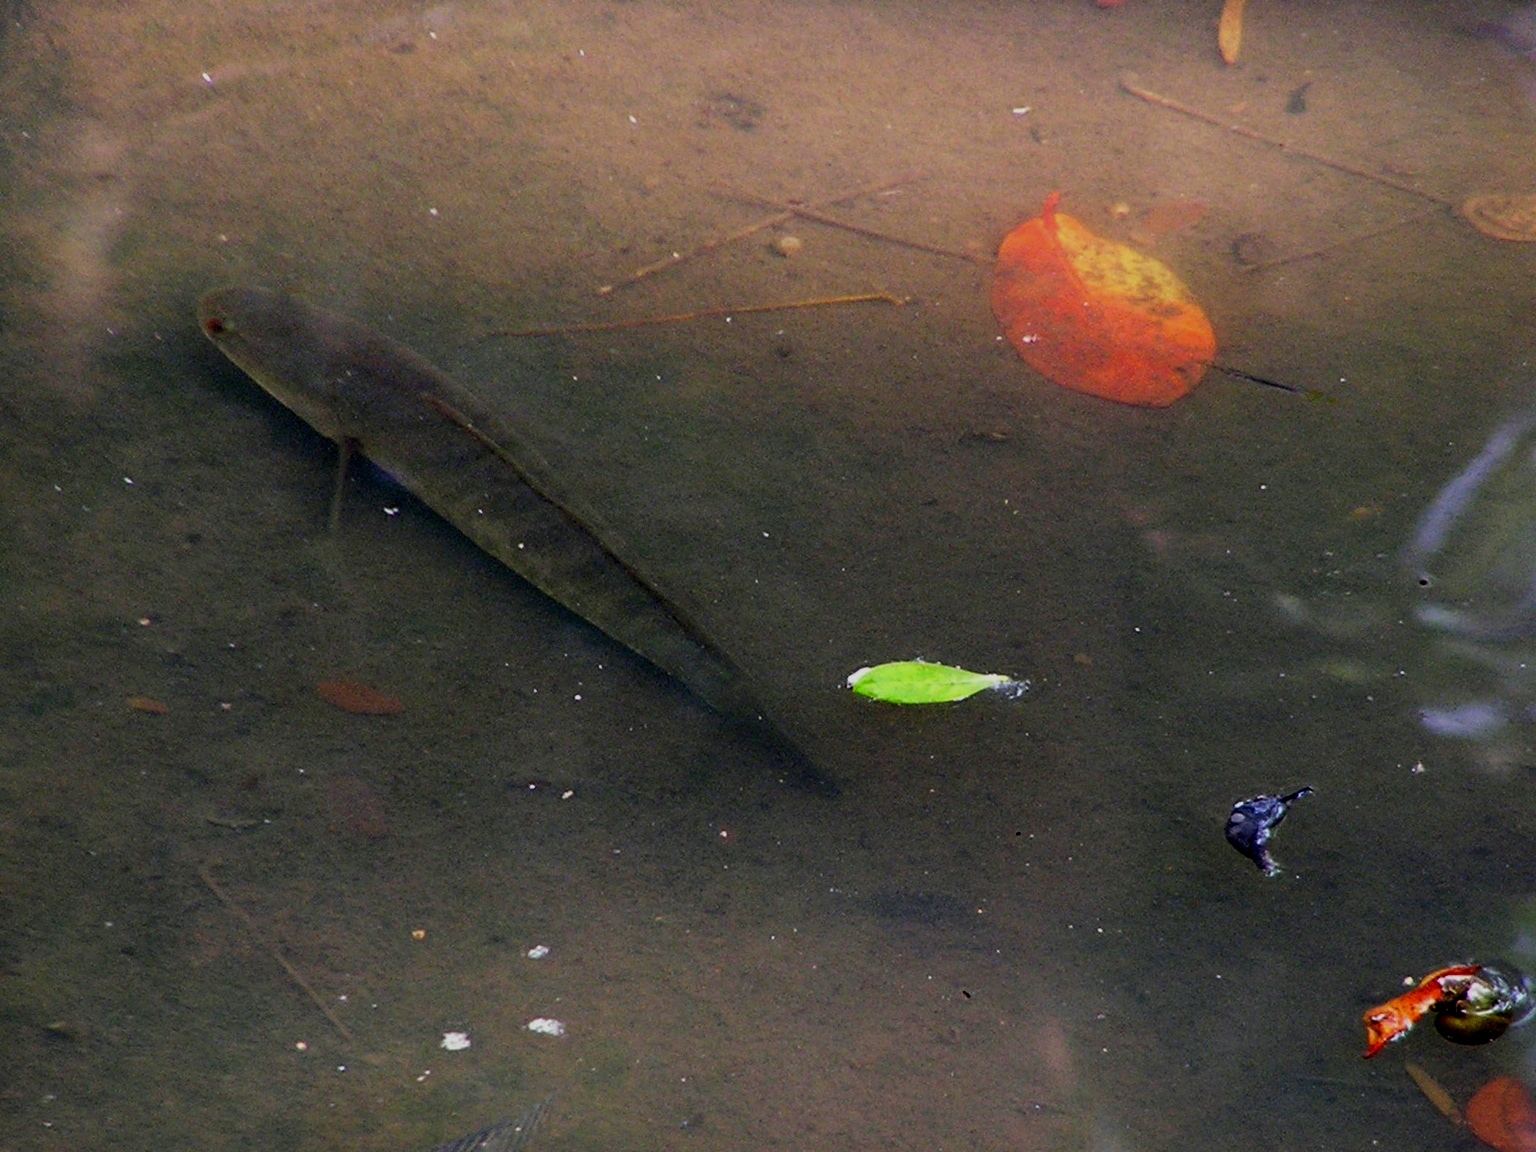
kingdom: Animalia
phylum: Chordata
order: Perciformes
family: Channidae
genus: Channa
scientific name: Channa striata
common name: Striped snakehead
